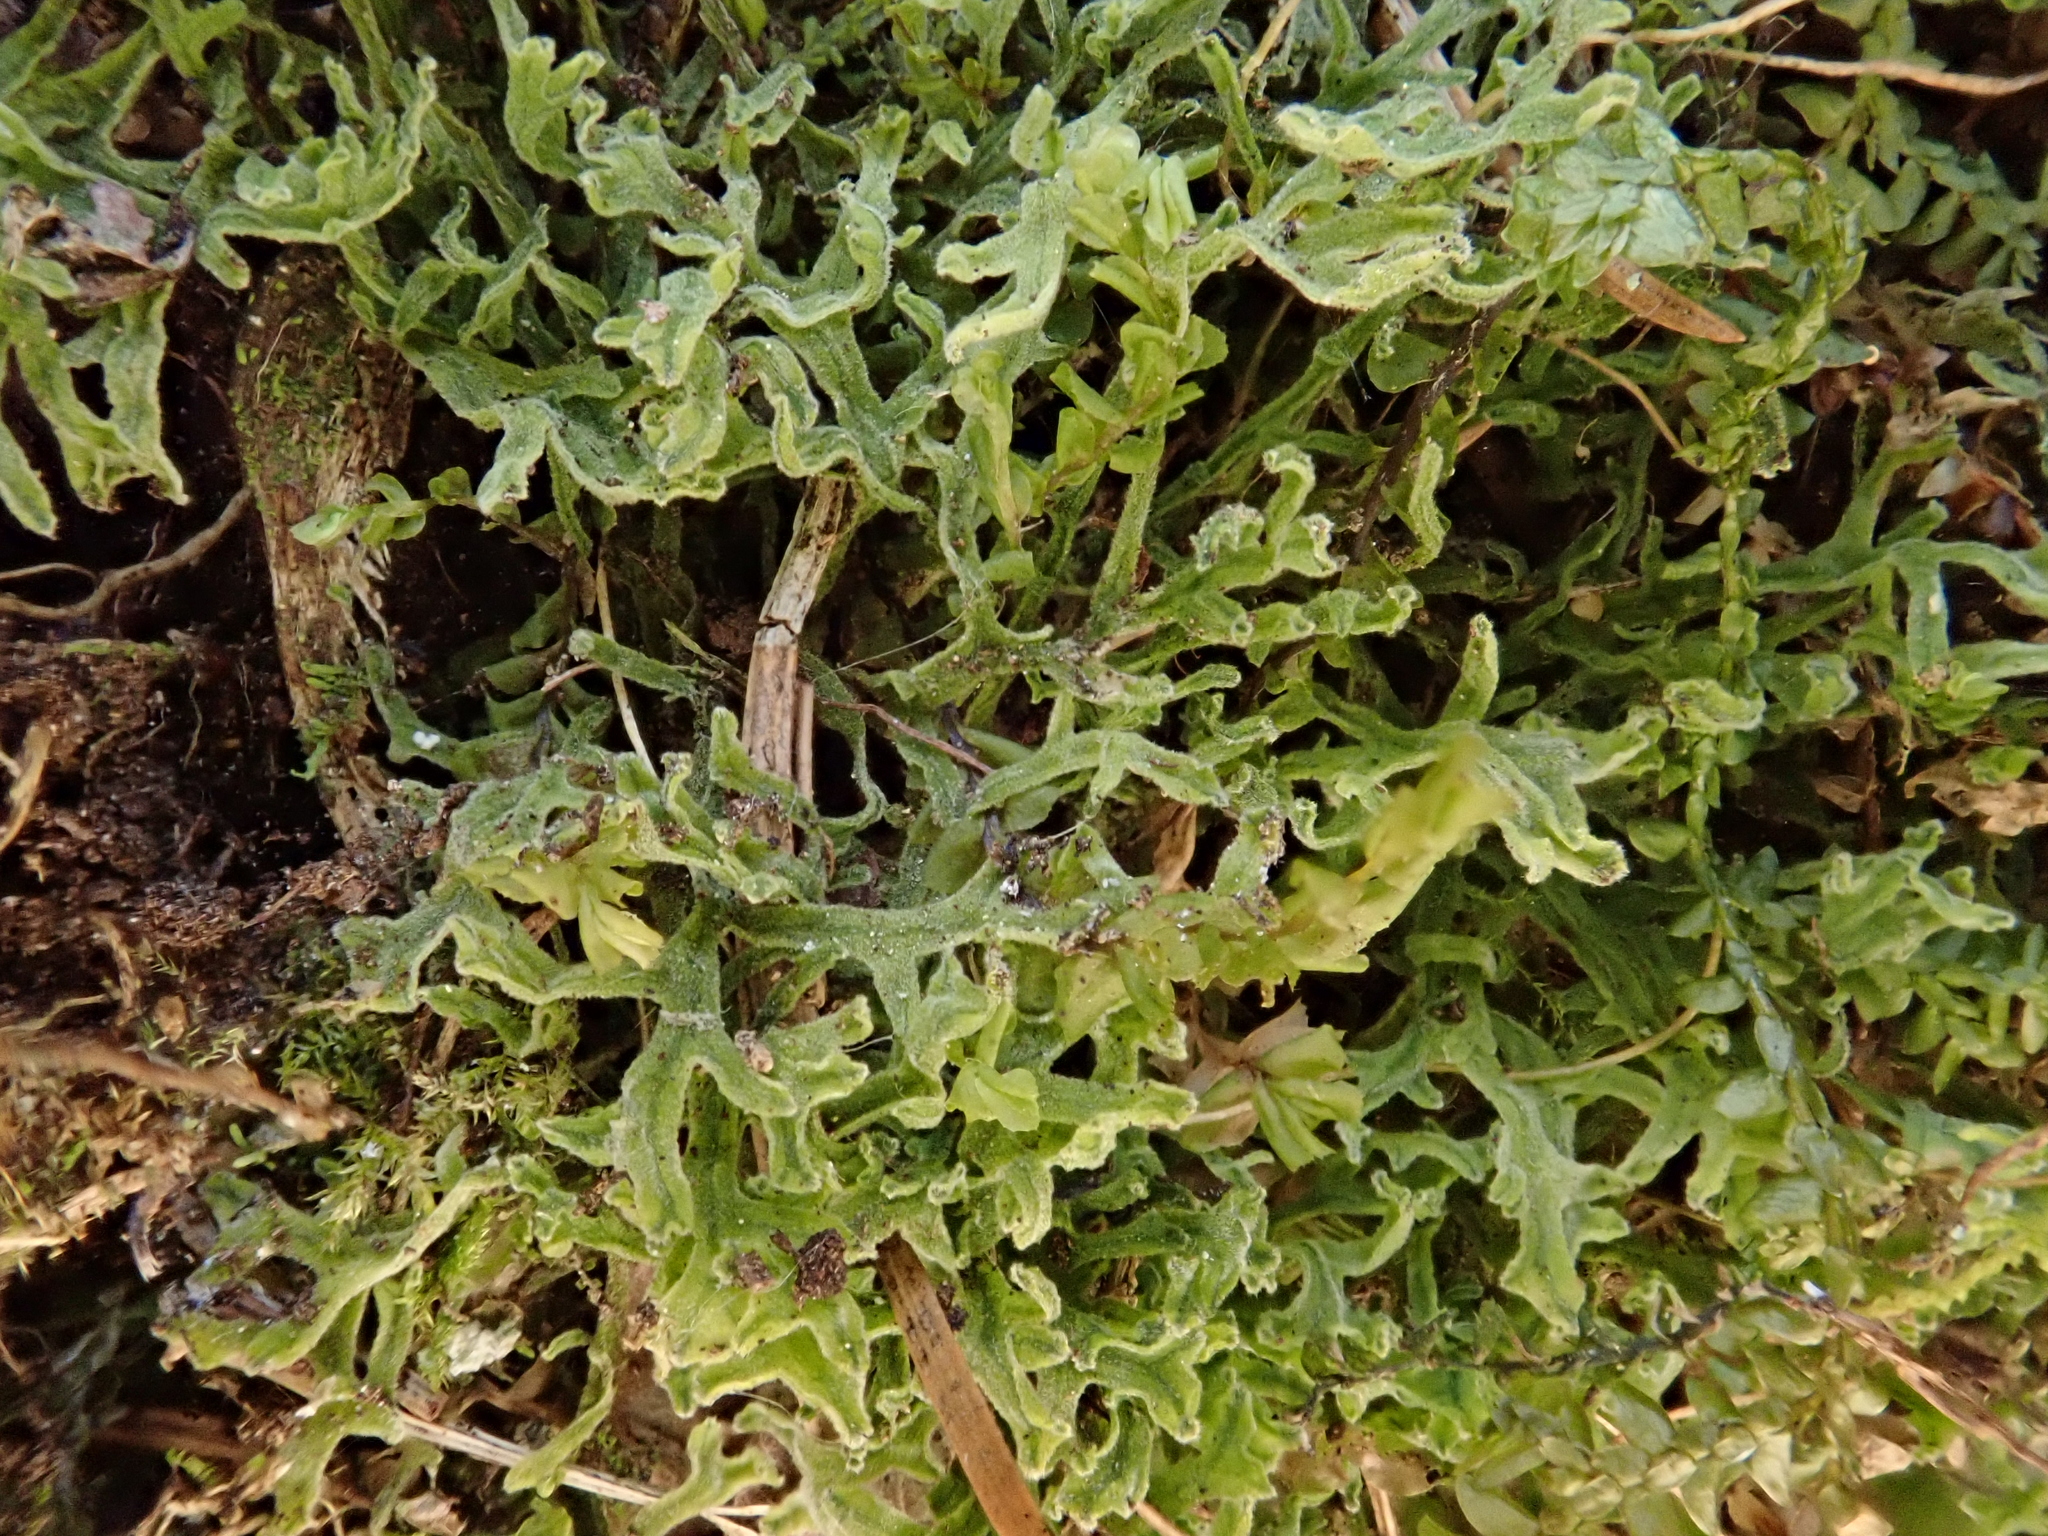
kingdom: Plantae
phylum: Marchantiophyta
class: Jungermanniopsida
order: Metzgeriales
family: Metzgeriaceae
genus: Metzgeria
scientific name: Metzgeria pubescens
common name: Downy veilwort
